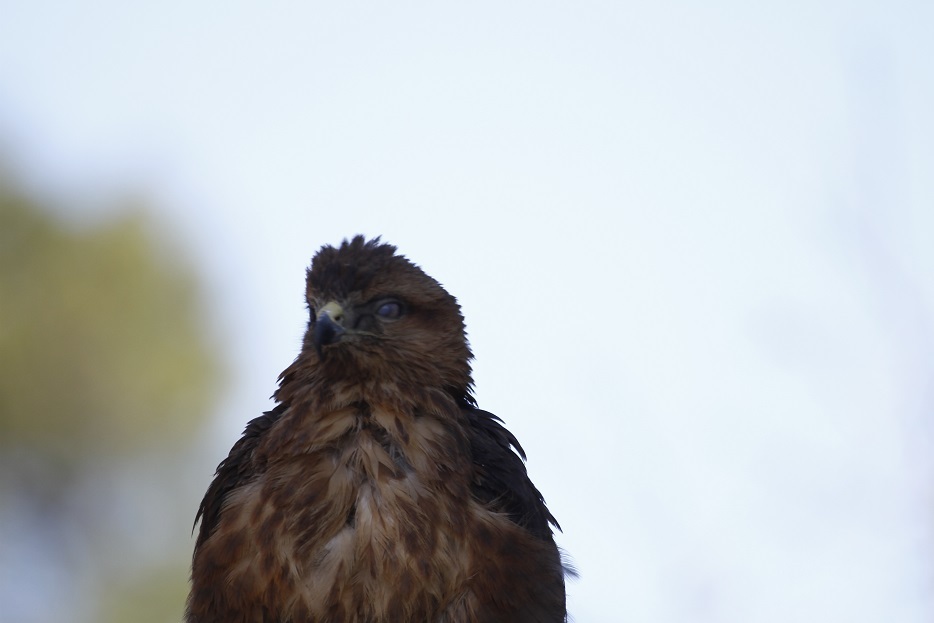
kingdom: Animalia
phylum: Chordata
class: Aves
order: Accipitriformes
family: Accipitridae
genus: Buteo
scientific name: Buteo rufinus
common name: Long-legged buzzard
